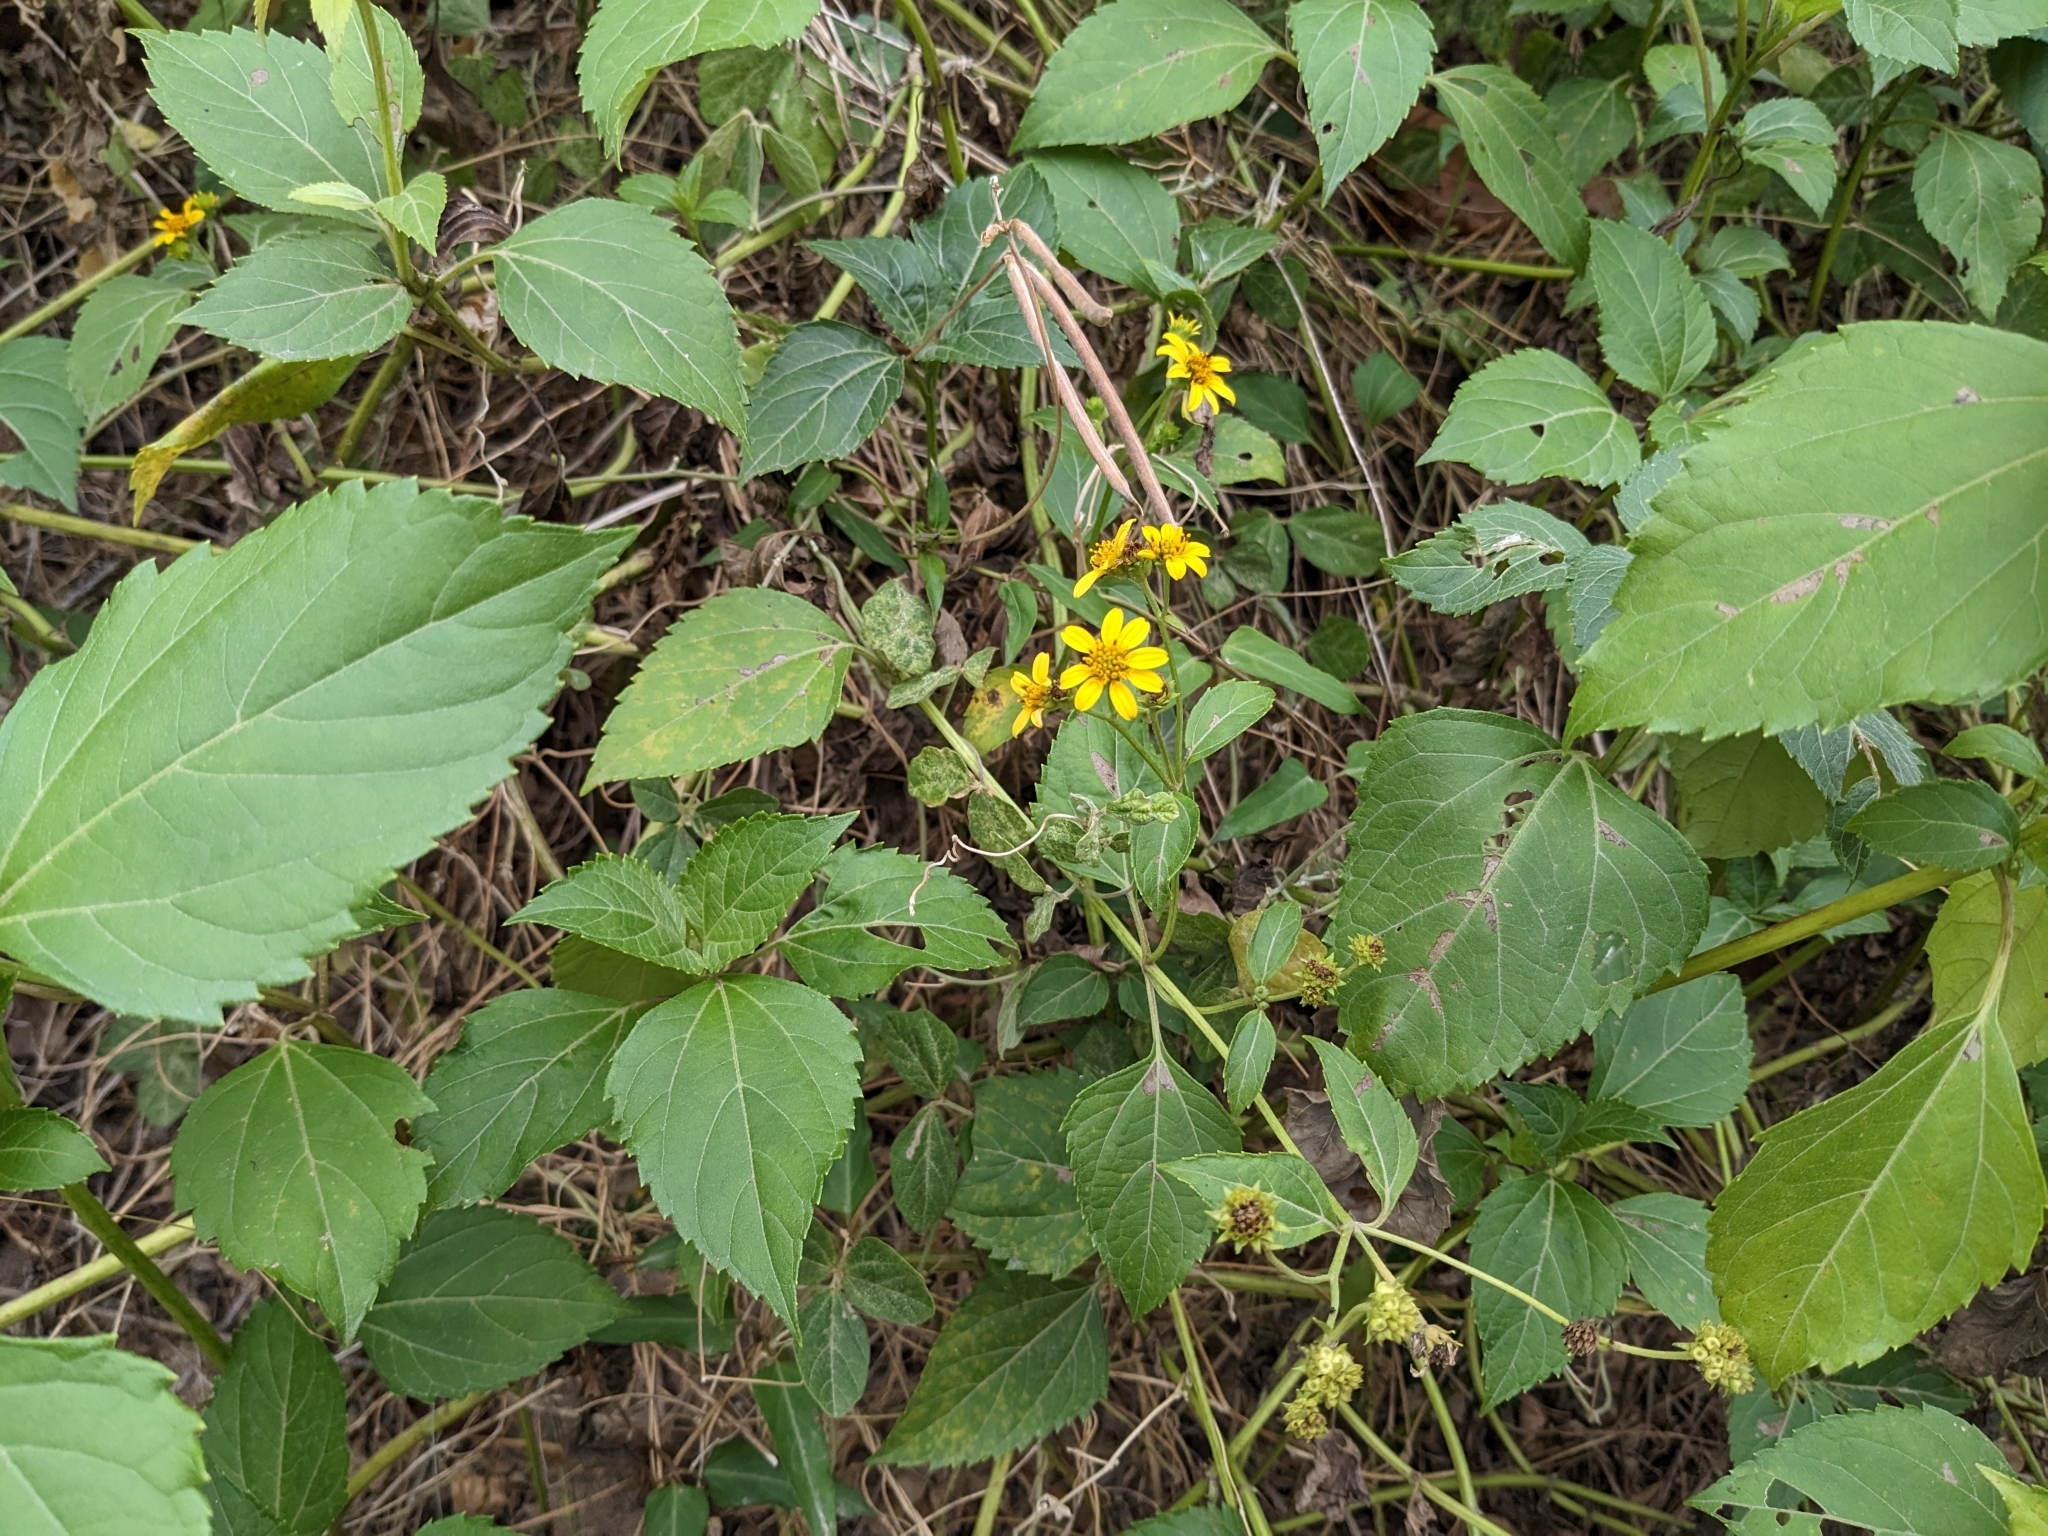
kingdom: Plantae
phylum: Tracheophyta
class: Magnoliopsida
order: Asterales
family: Asteraceae
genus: Wollastonia
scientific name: Wollastonia biflora
